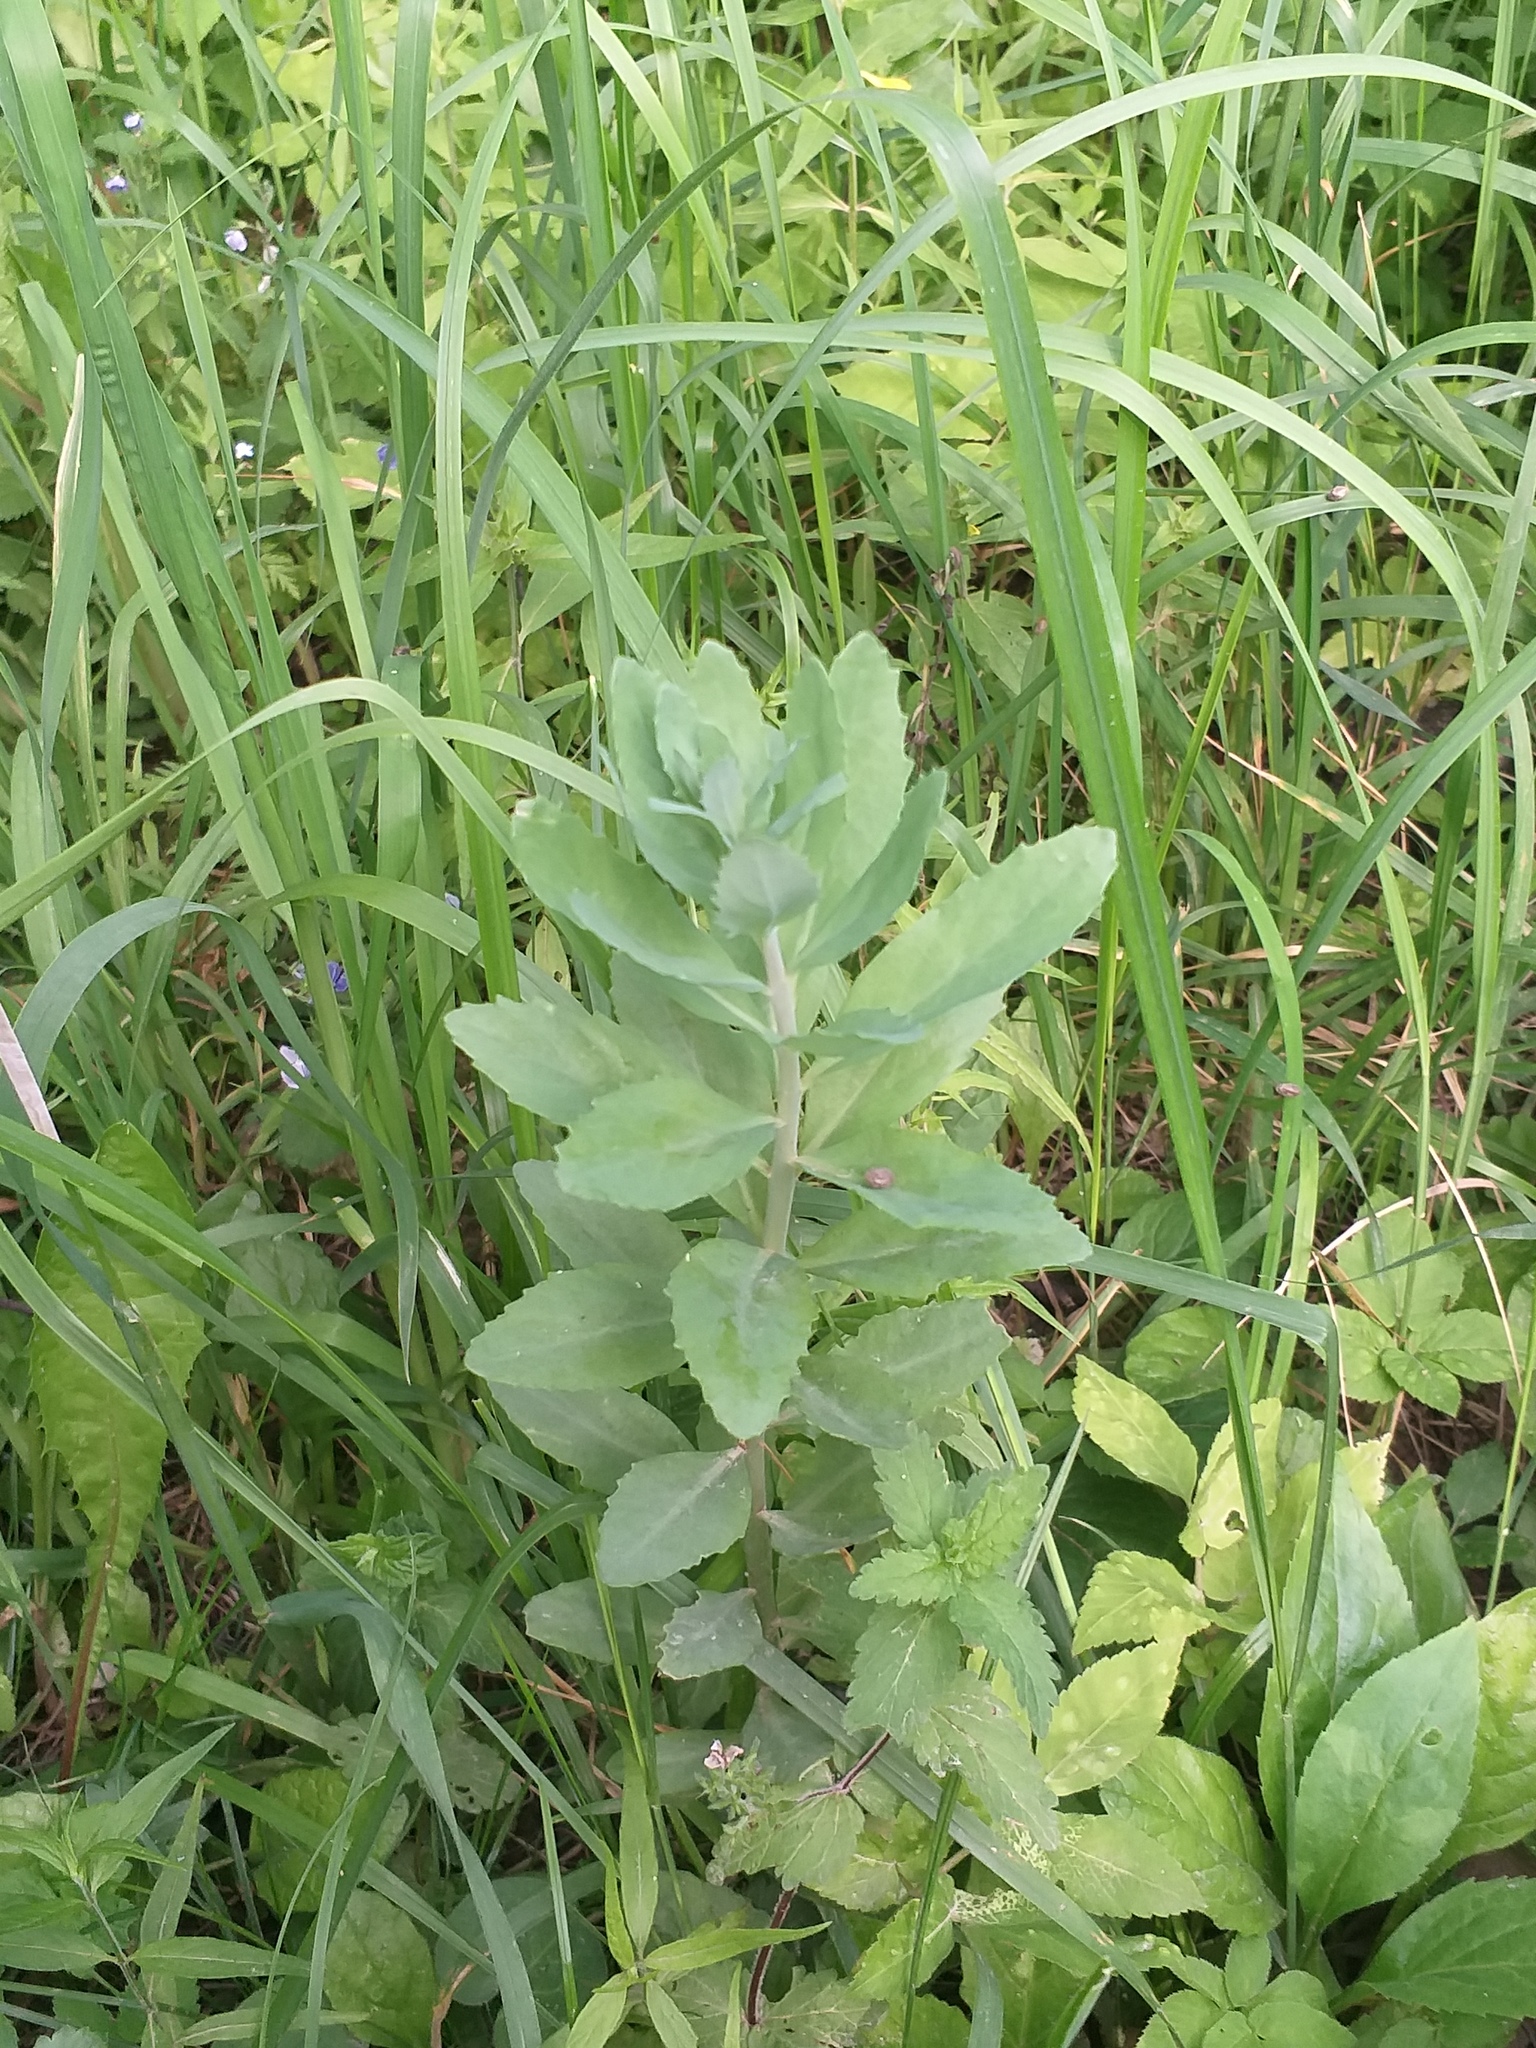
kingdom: Plantae
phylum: Tracheophyta
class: Magnoliopsida
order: Saxifragales
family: Crassulaceae
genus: Hylotelephium
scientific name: Hylotelephium telephium
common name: Live-forever
